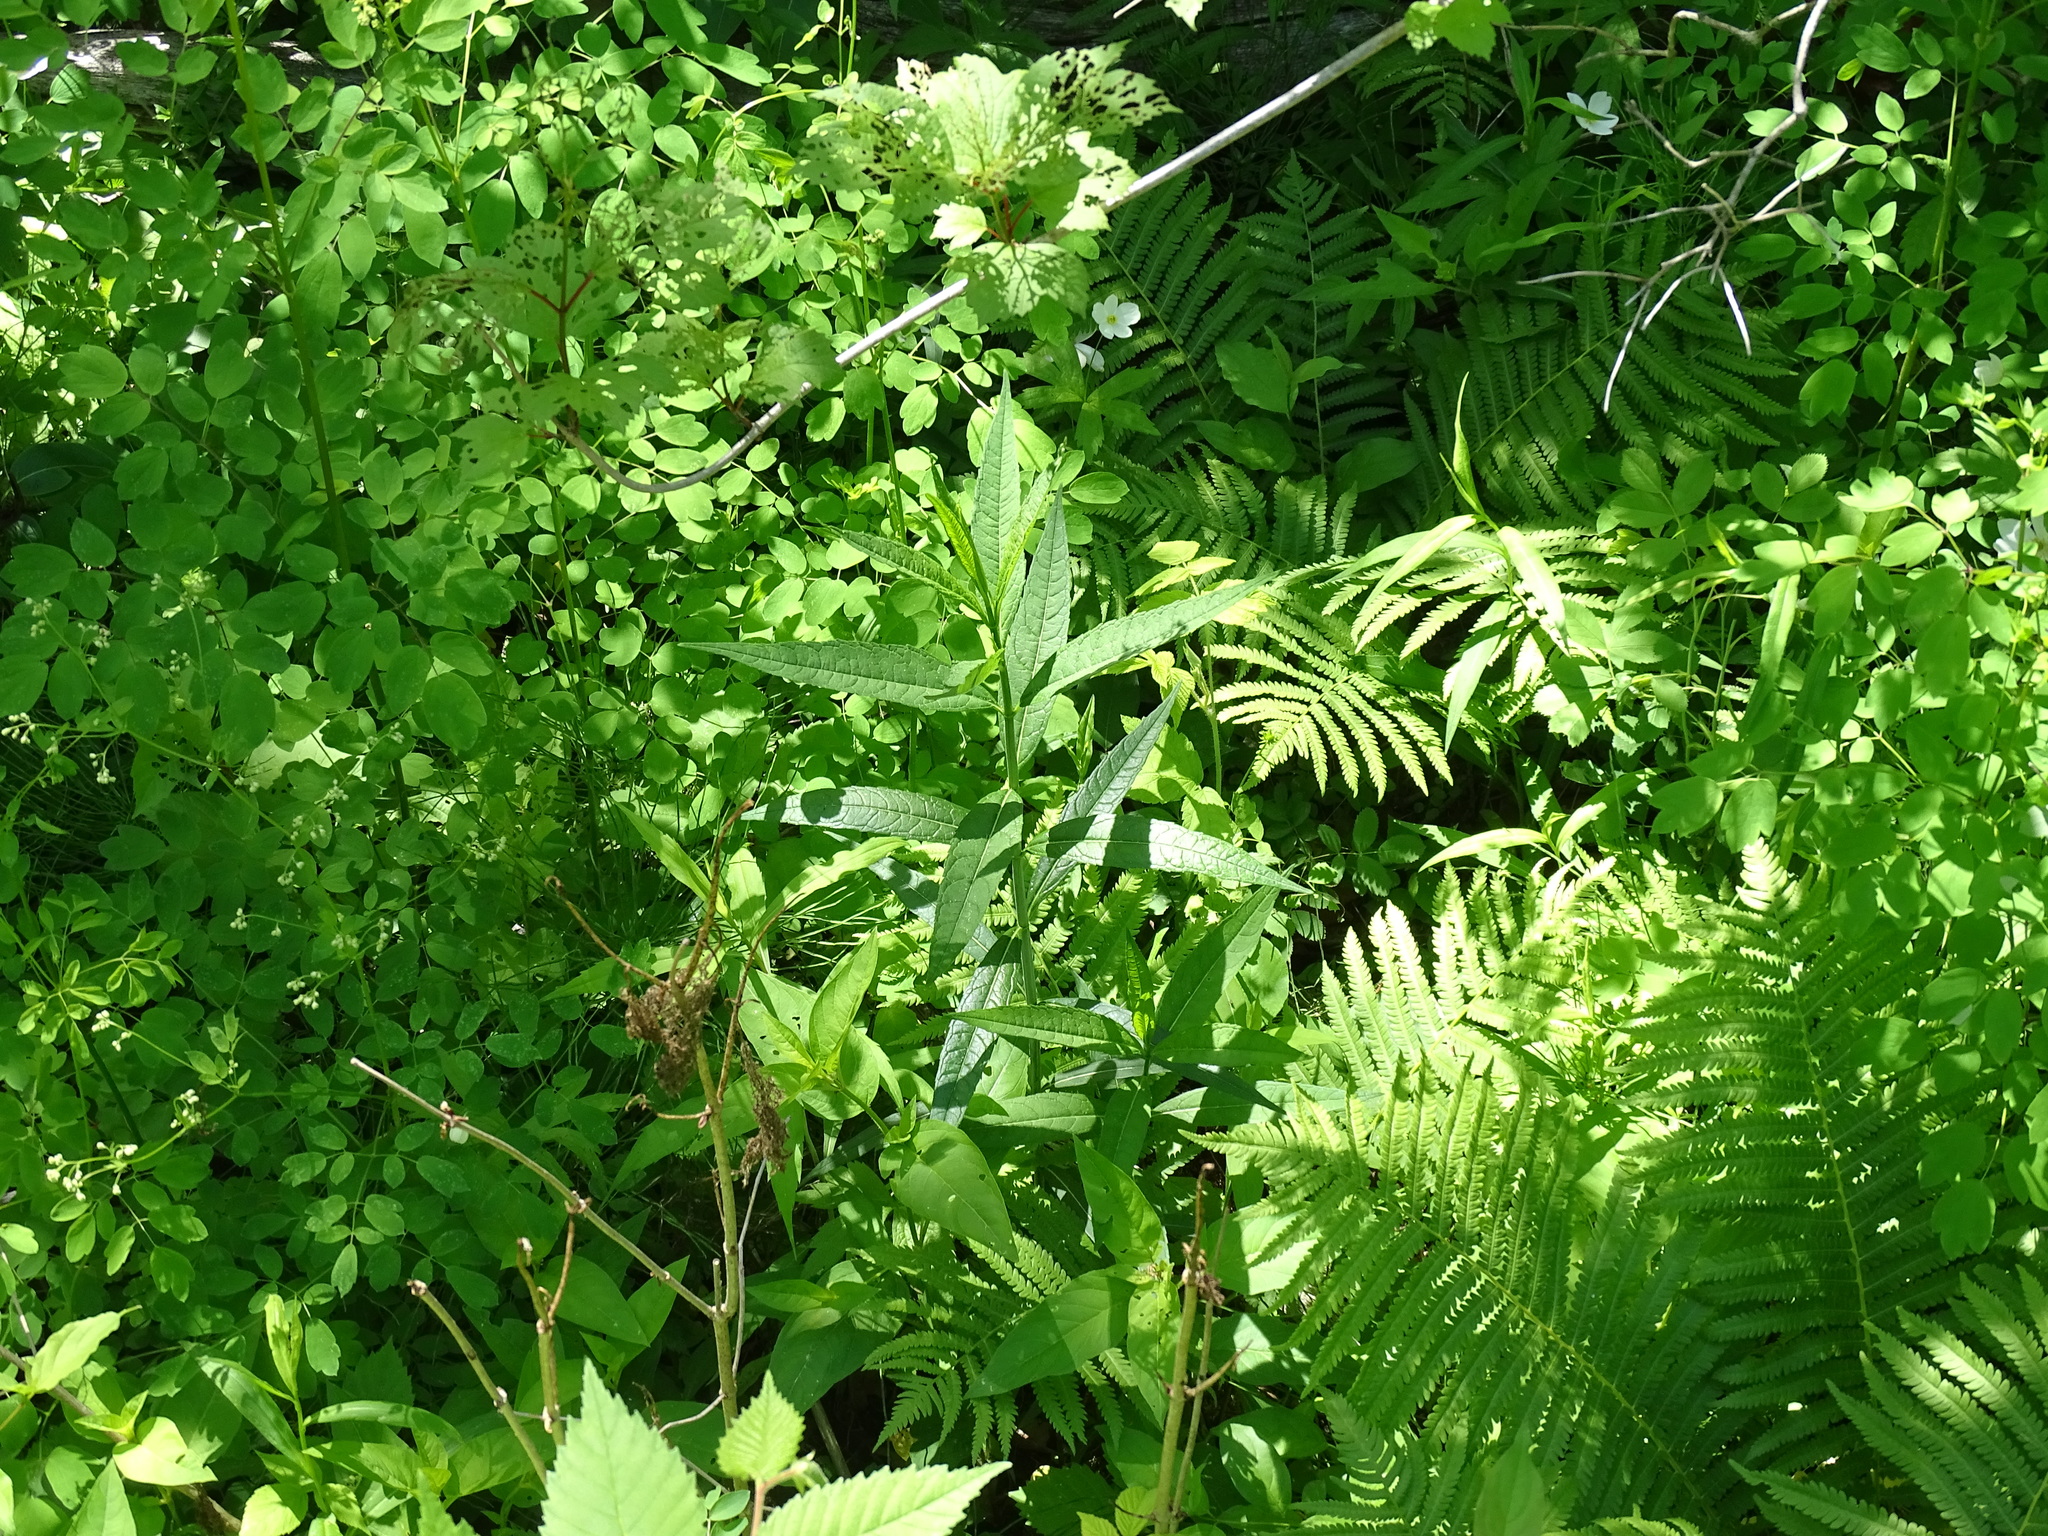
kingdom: Plantae
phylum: Tracheophyta
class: Magnoliopsida
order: Lamiales
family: Plantaginaceae
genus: Chelone
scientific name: Chelone glabra
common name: Snakehead
